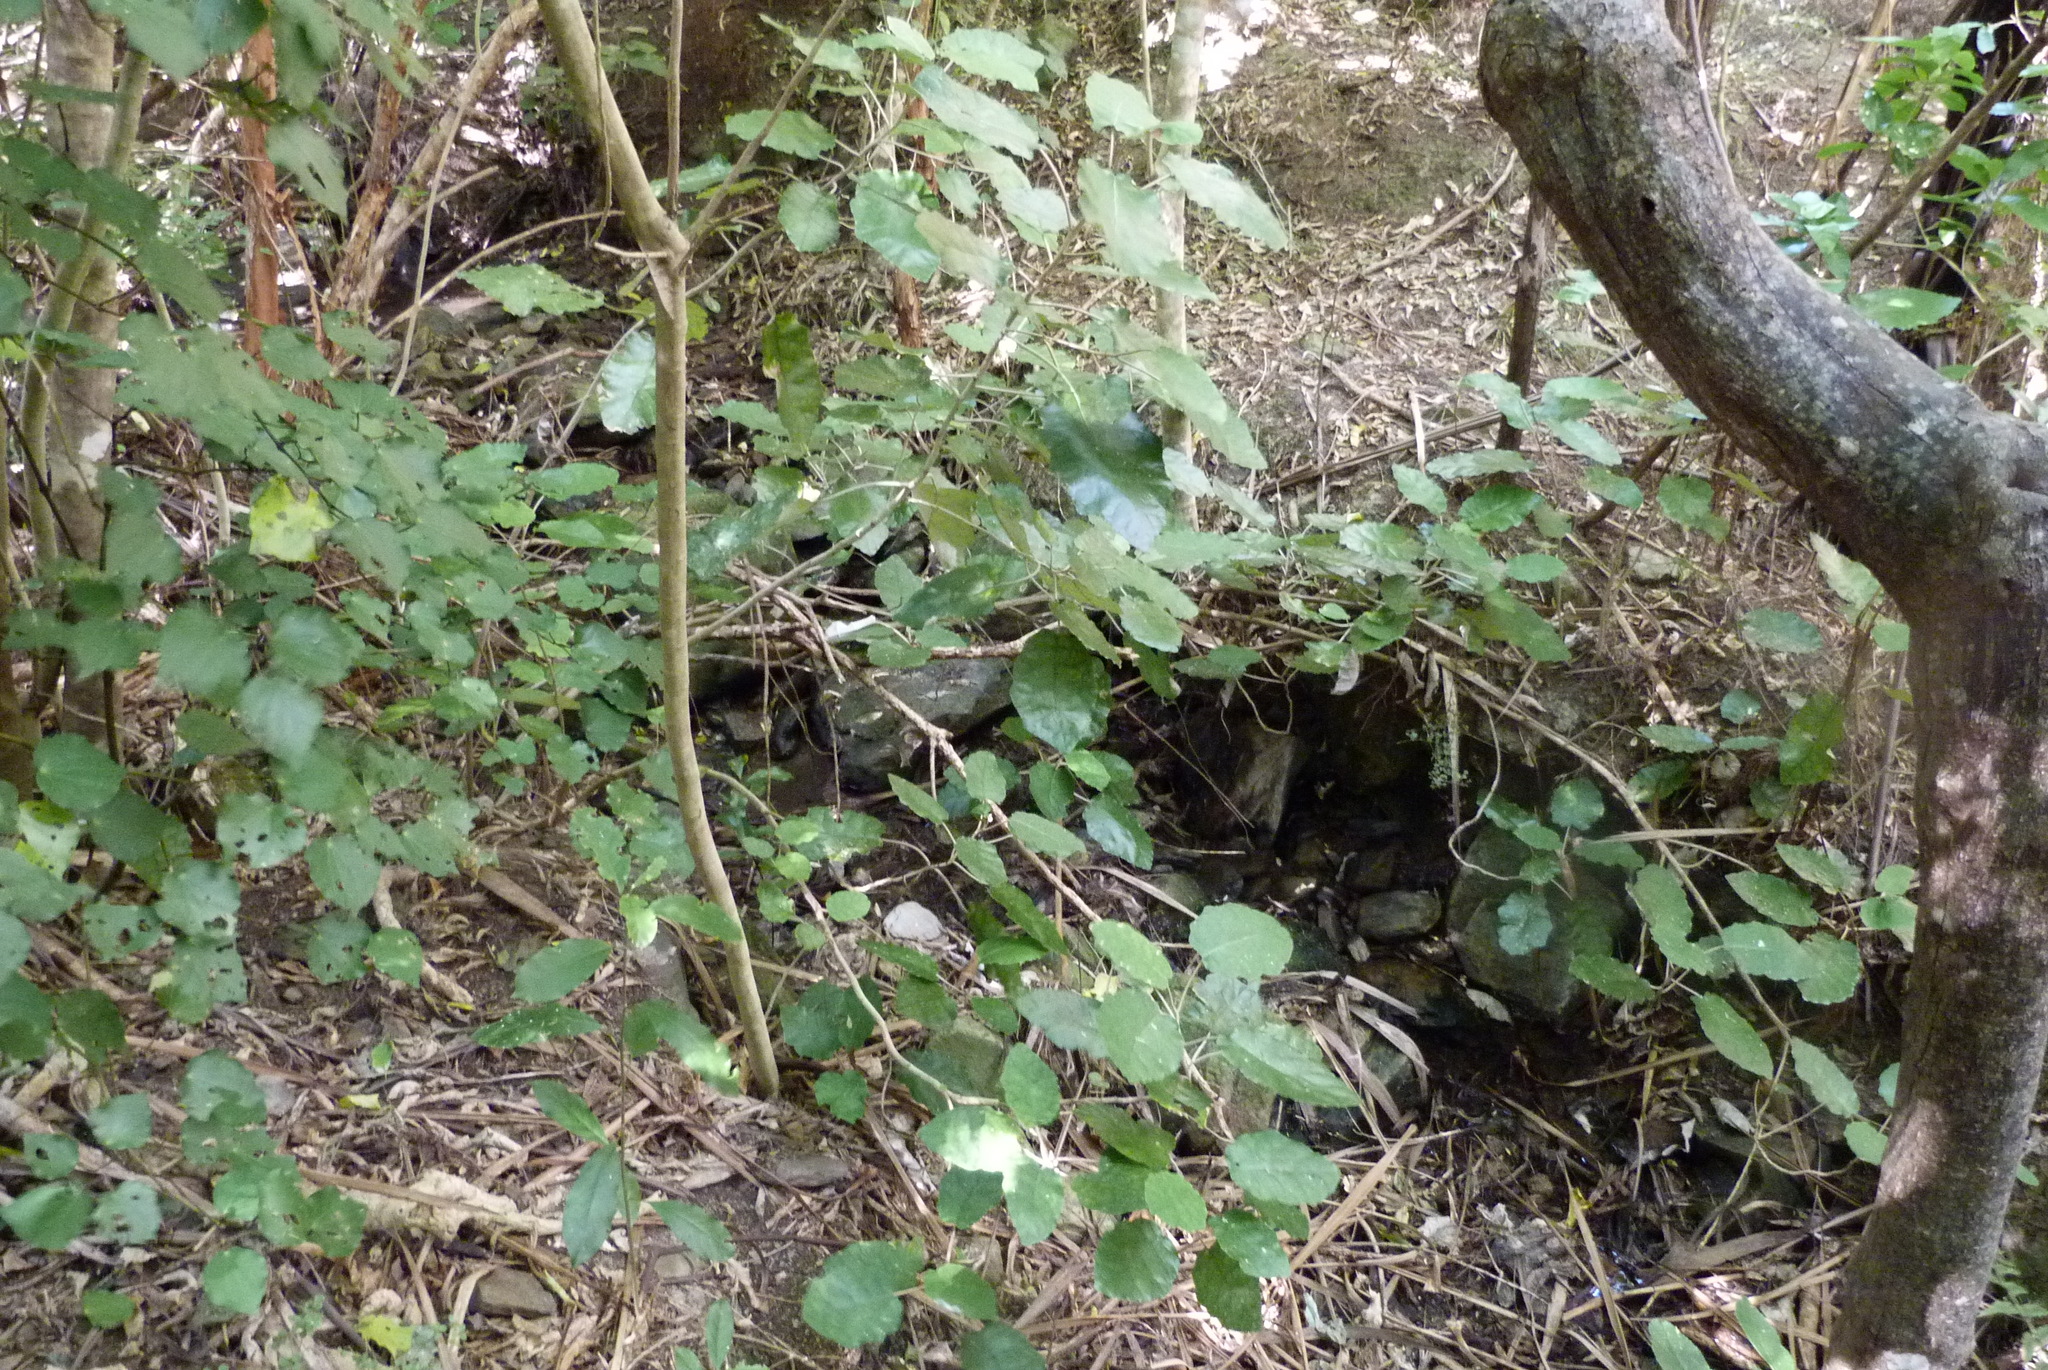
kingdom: Plantae
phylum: Tracheophyta
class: Magnoliopsida
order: Asterales
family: Asteraceae
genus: Brachyglottis
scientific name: Brachyglottis repanda
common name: Hedge ragwort
